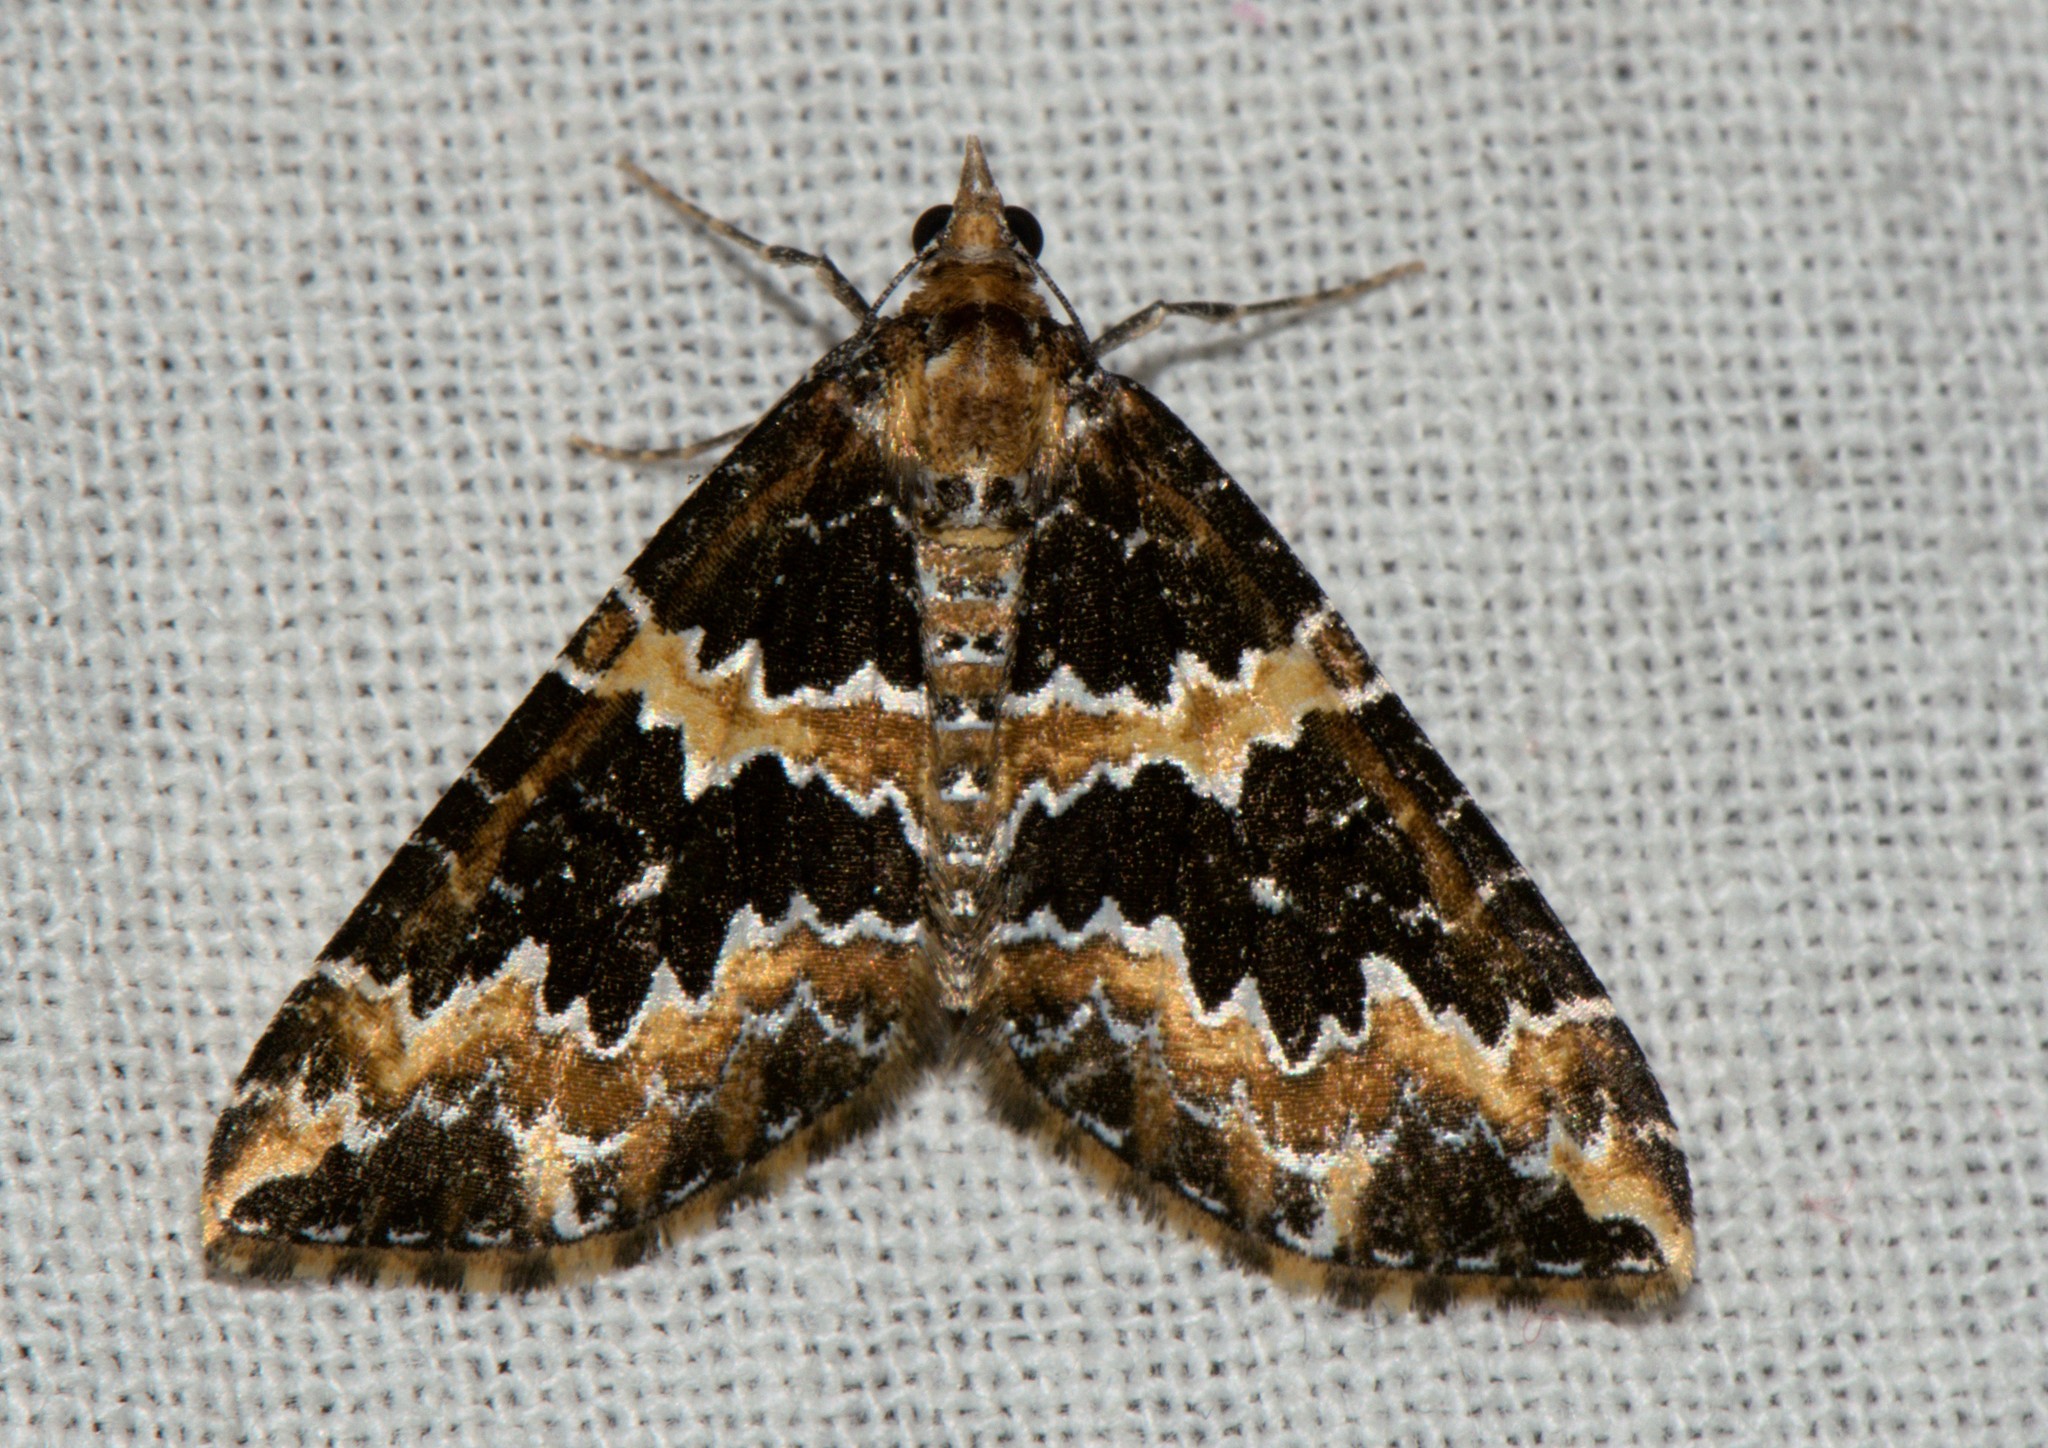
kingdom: Animalia
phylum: Arthropoda
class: Insecta
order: Lepidoptera
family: Geometridae
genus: Electrophaes
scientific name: Electrophaes marginata
